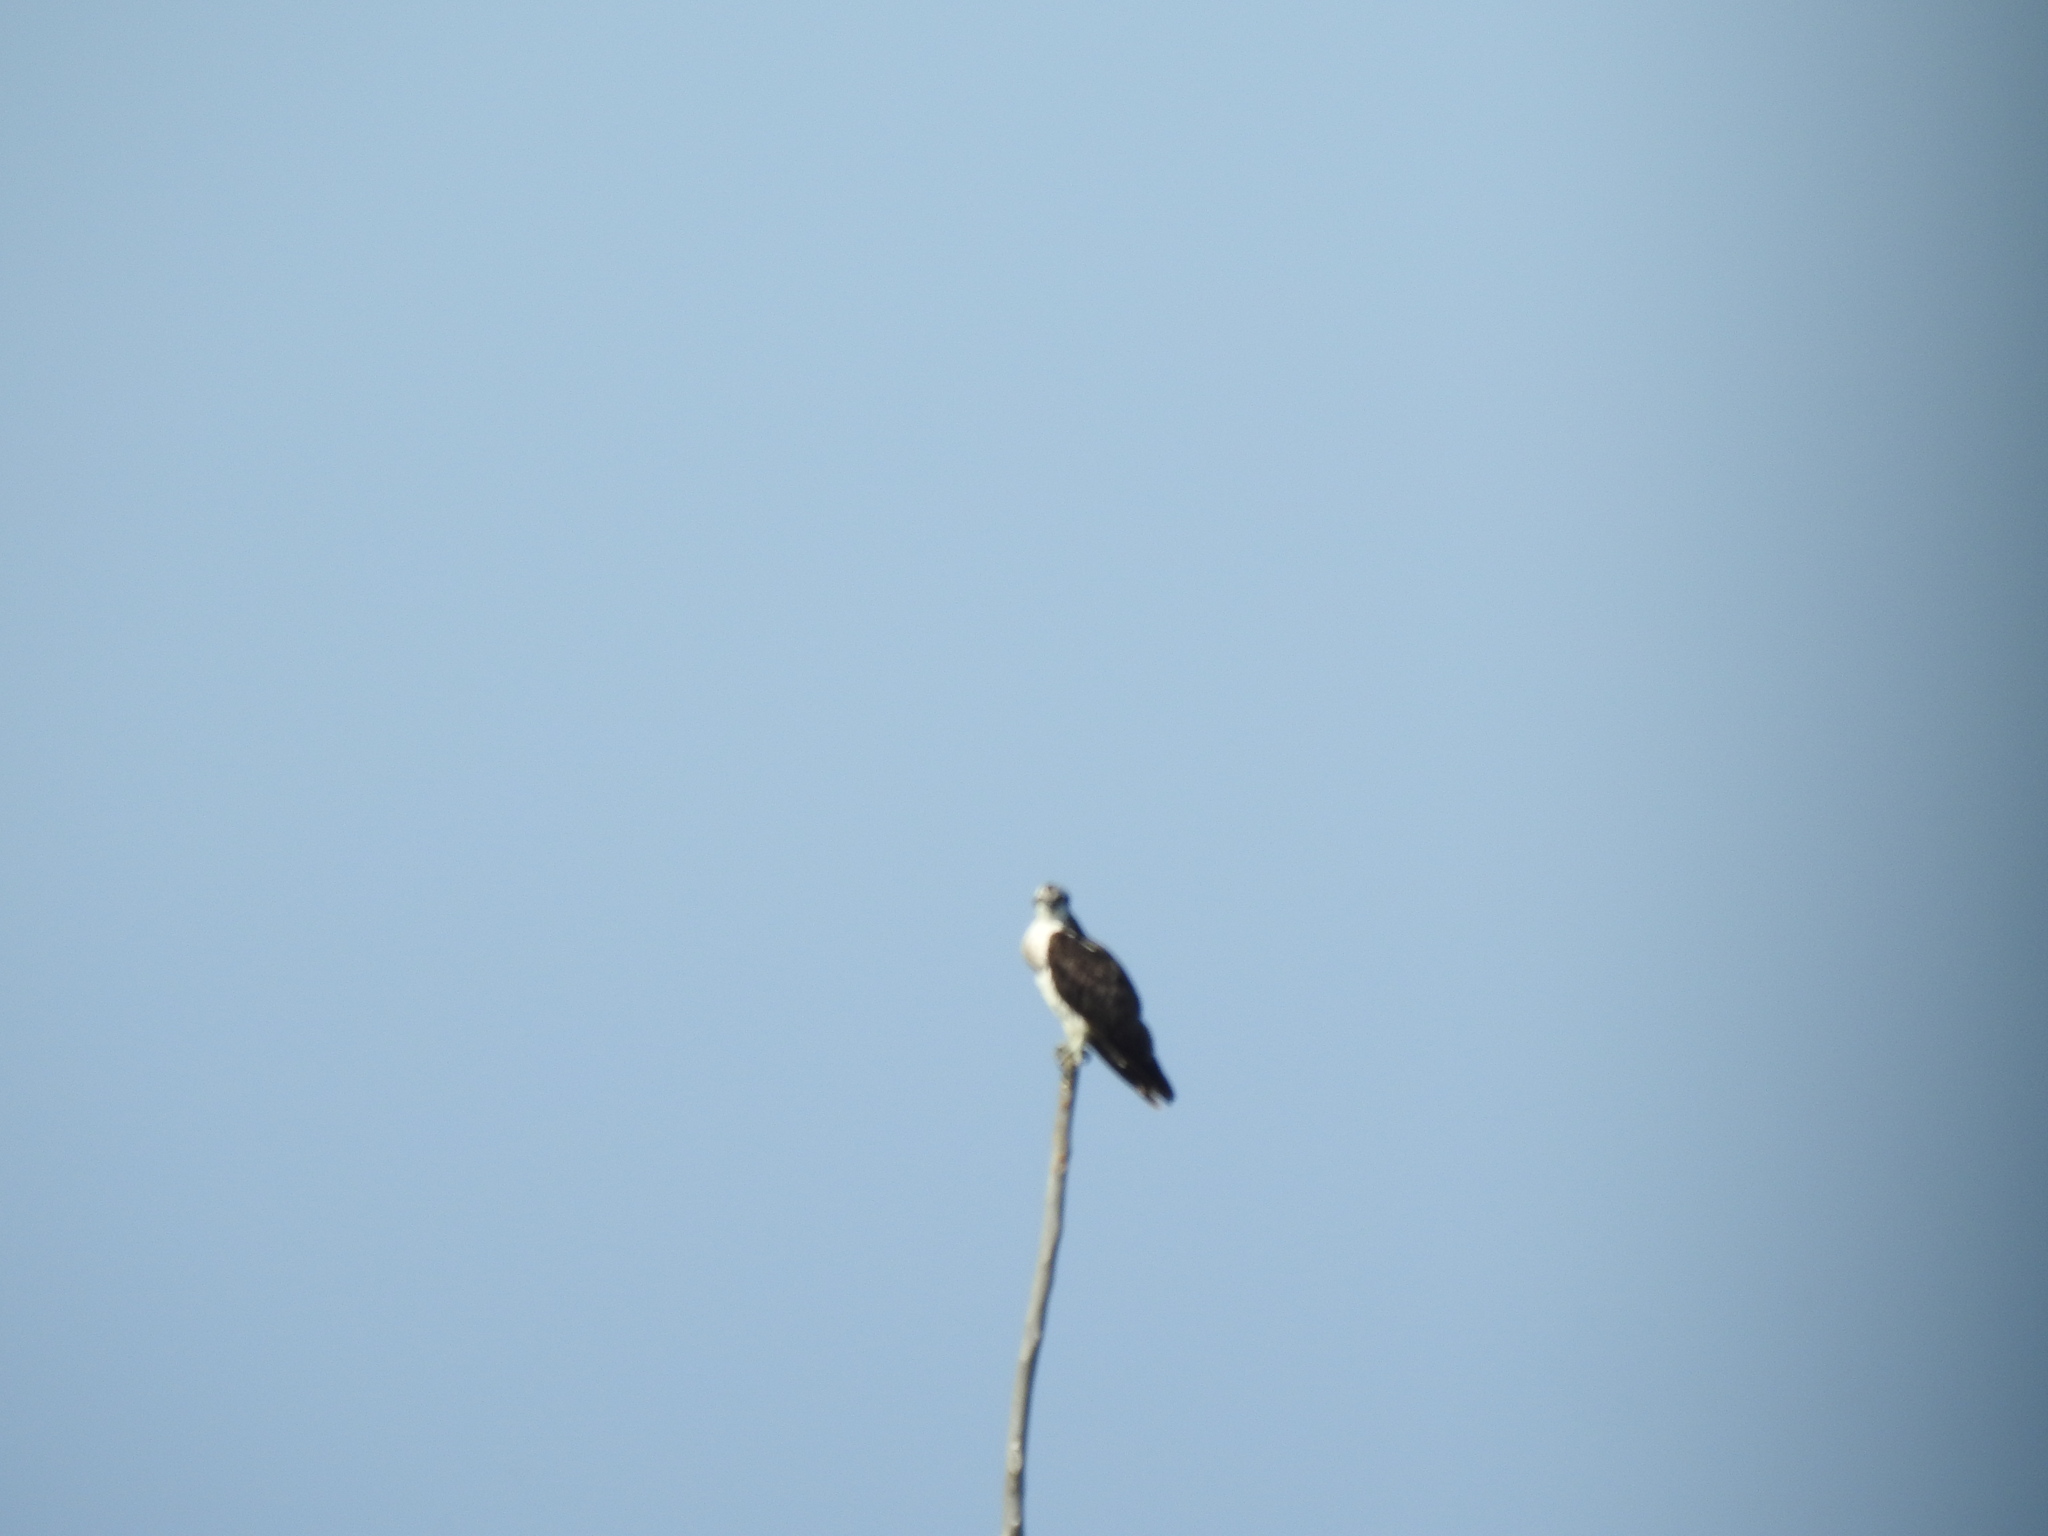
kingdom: Animalia
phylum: Chordata
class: Aves
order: Accipitriformes
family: Pandionidae
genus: Pandion
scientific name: Pandion haliaetus
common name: Osprey
